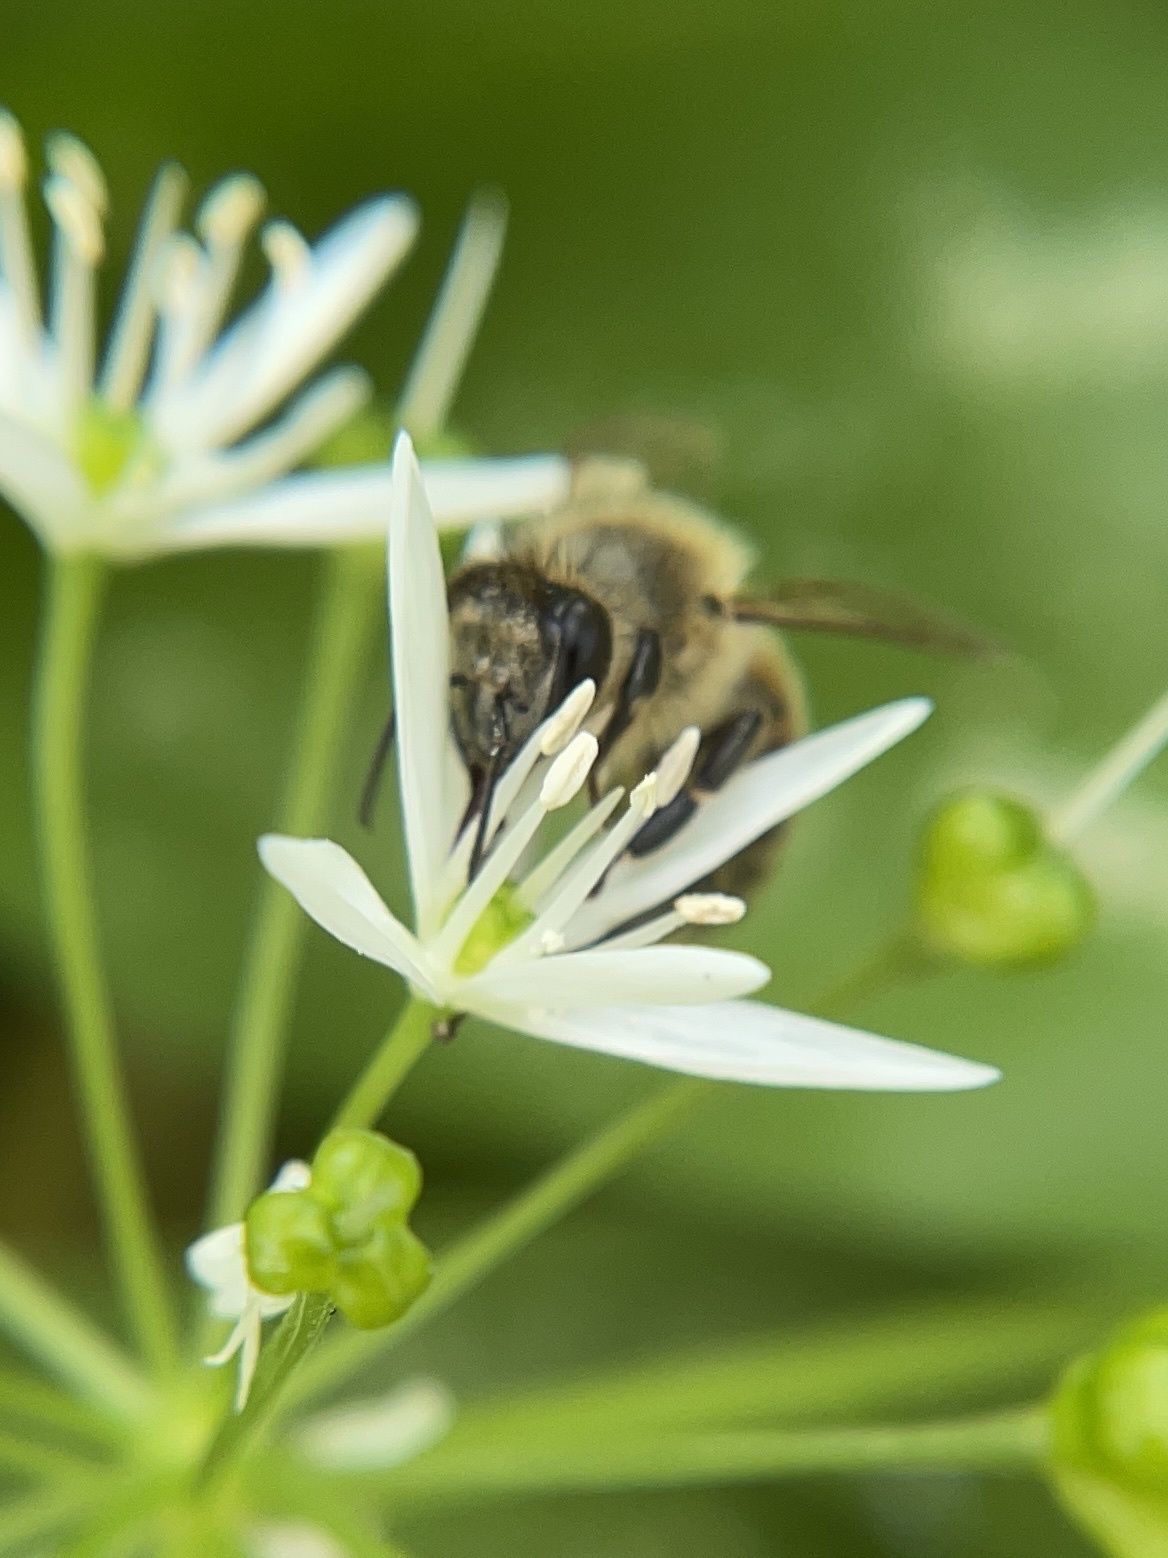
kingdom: Animalia
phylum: Arthropoda
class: Insecta
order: Hymenoptera
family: Apidae
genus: Apis
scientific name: Apis mellifera
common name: Honey bee
